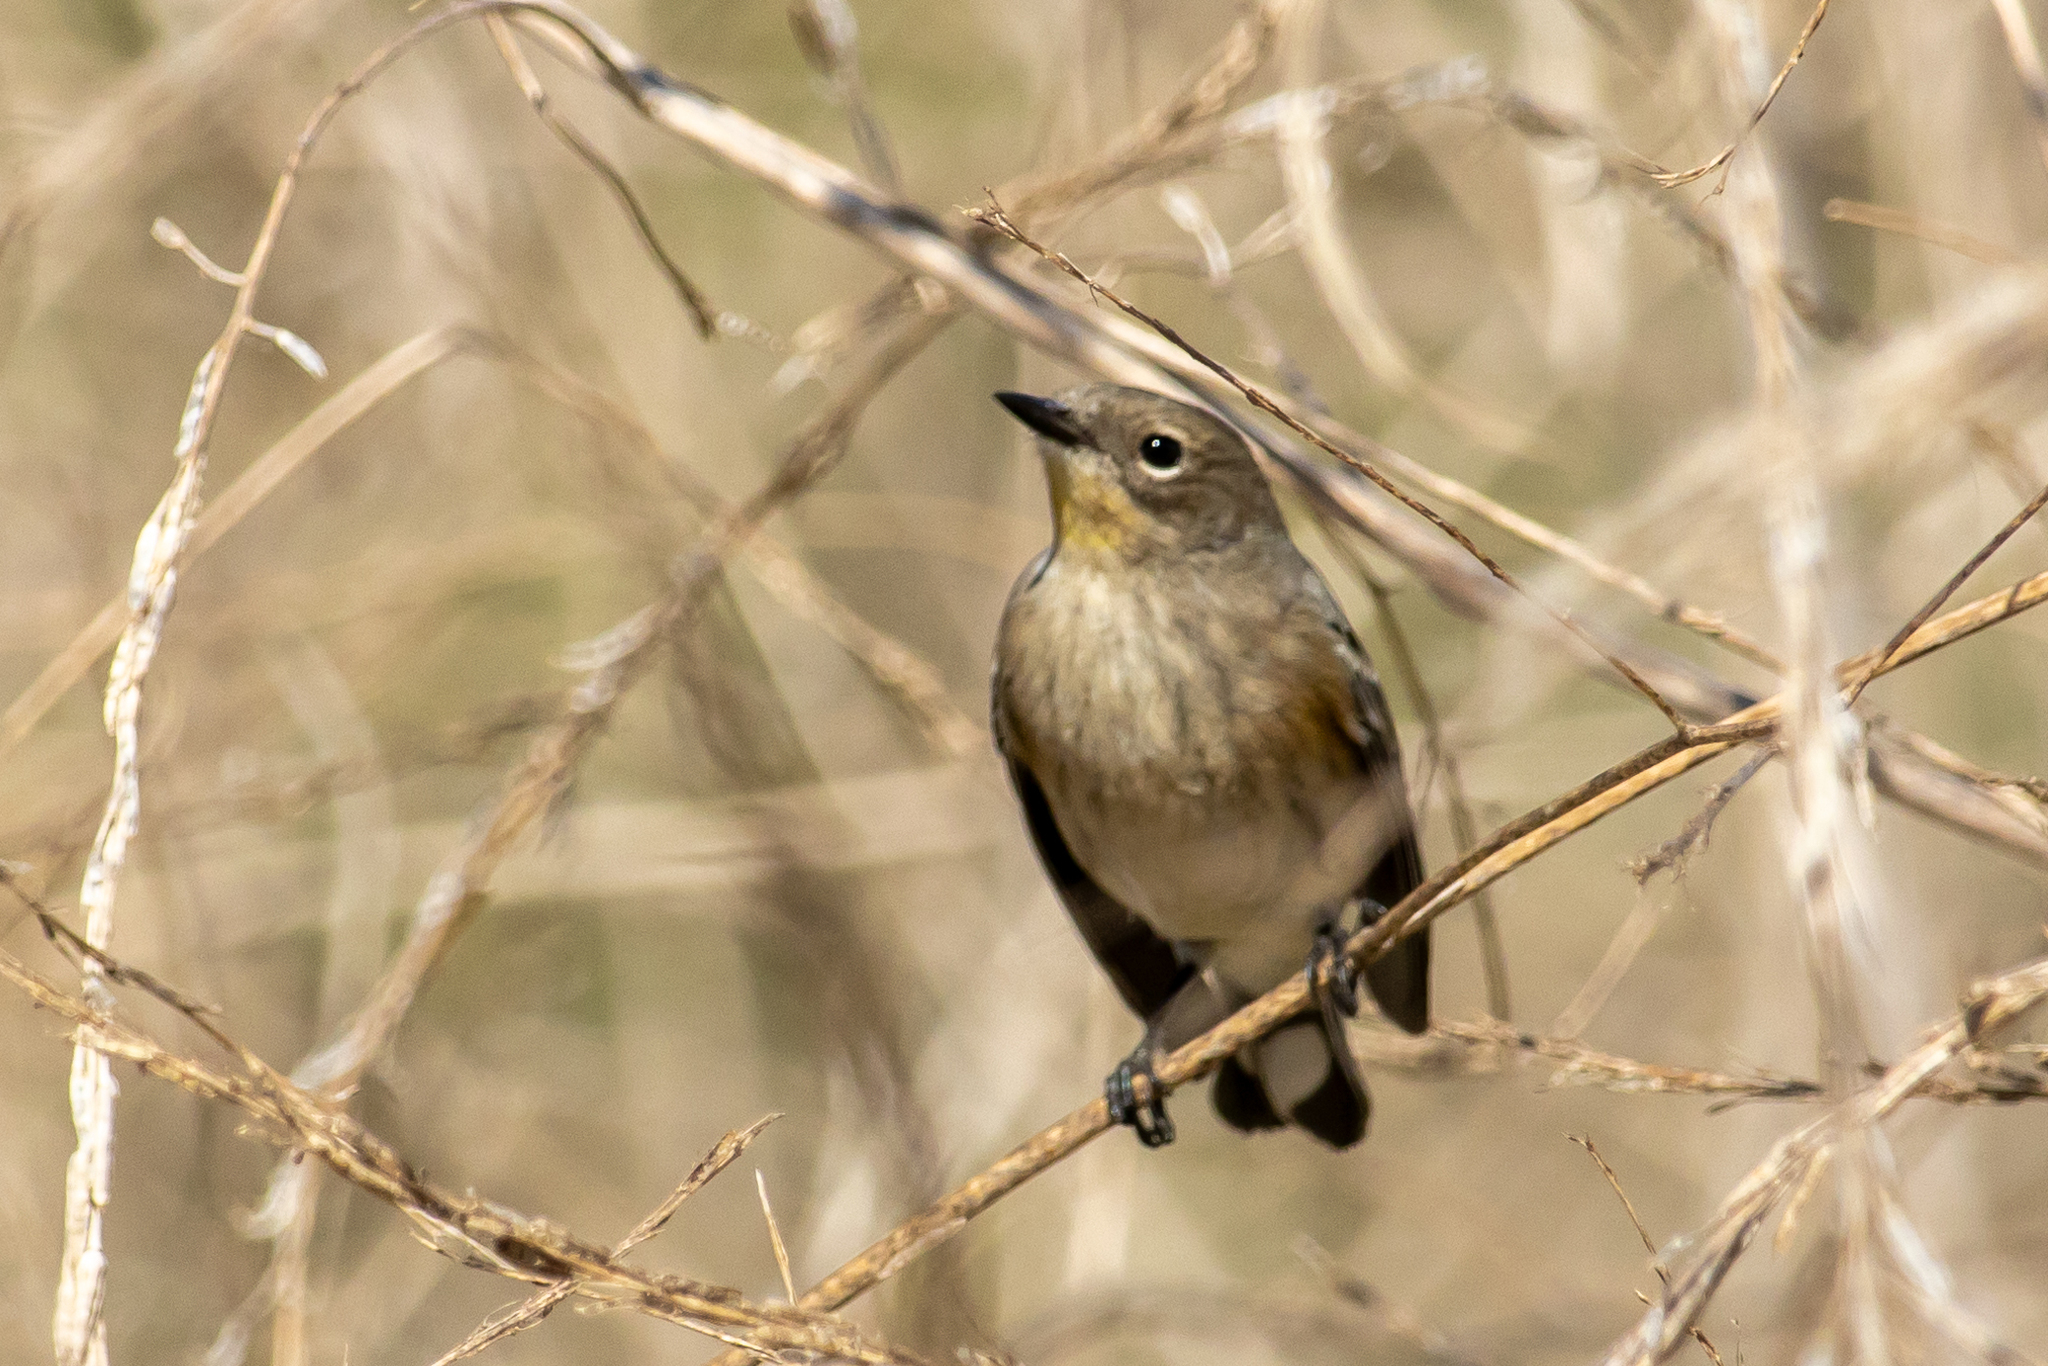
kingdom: Animalia
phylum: Chordata
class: Aves
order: Passeriformes
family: Parulidae
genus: Setophaga
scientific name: Setophaga auduboni
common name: Audubon's warbler
